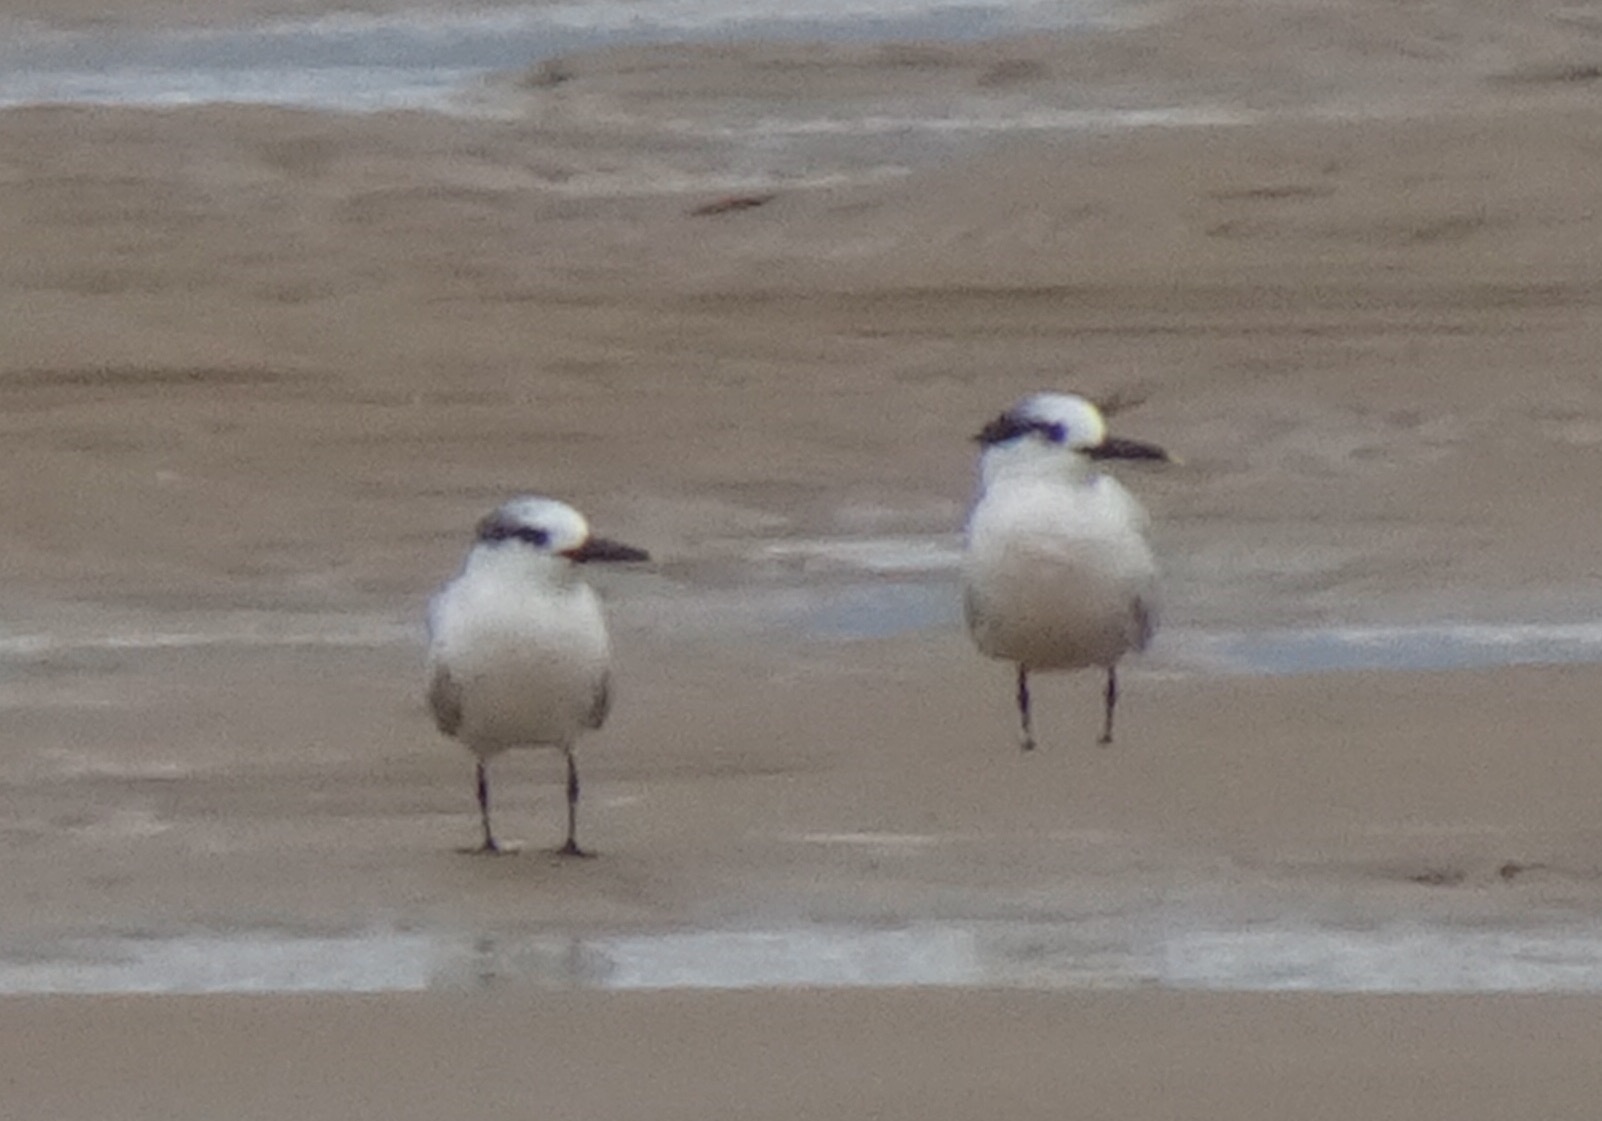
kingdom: Animalia
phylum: Chordata
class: Aves
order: Charadriiformes
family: Laridae
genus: Thalasseus
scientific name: Thalasseus sandvicensis
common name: Sandwich tern
